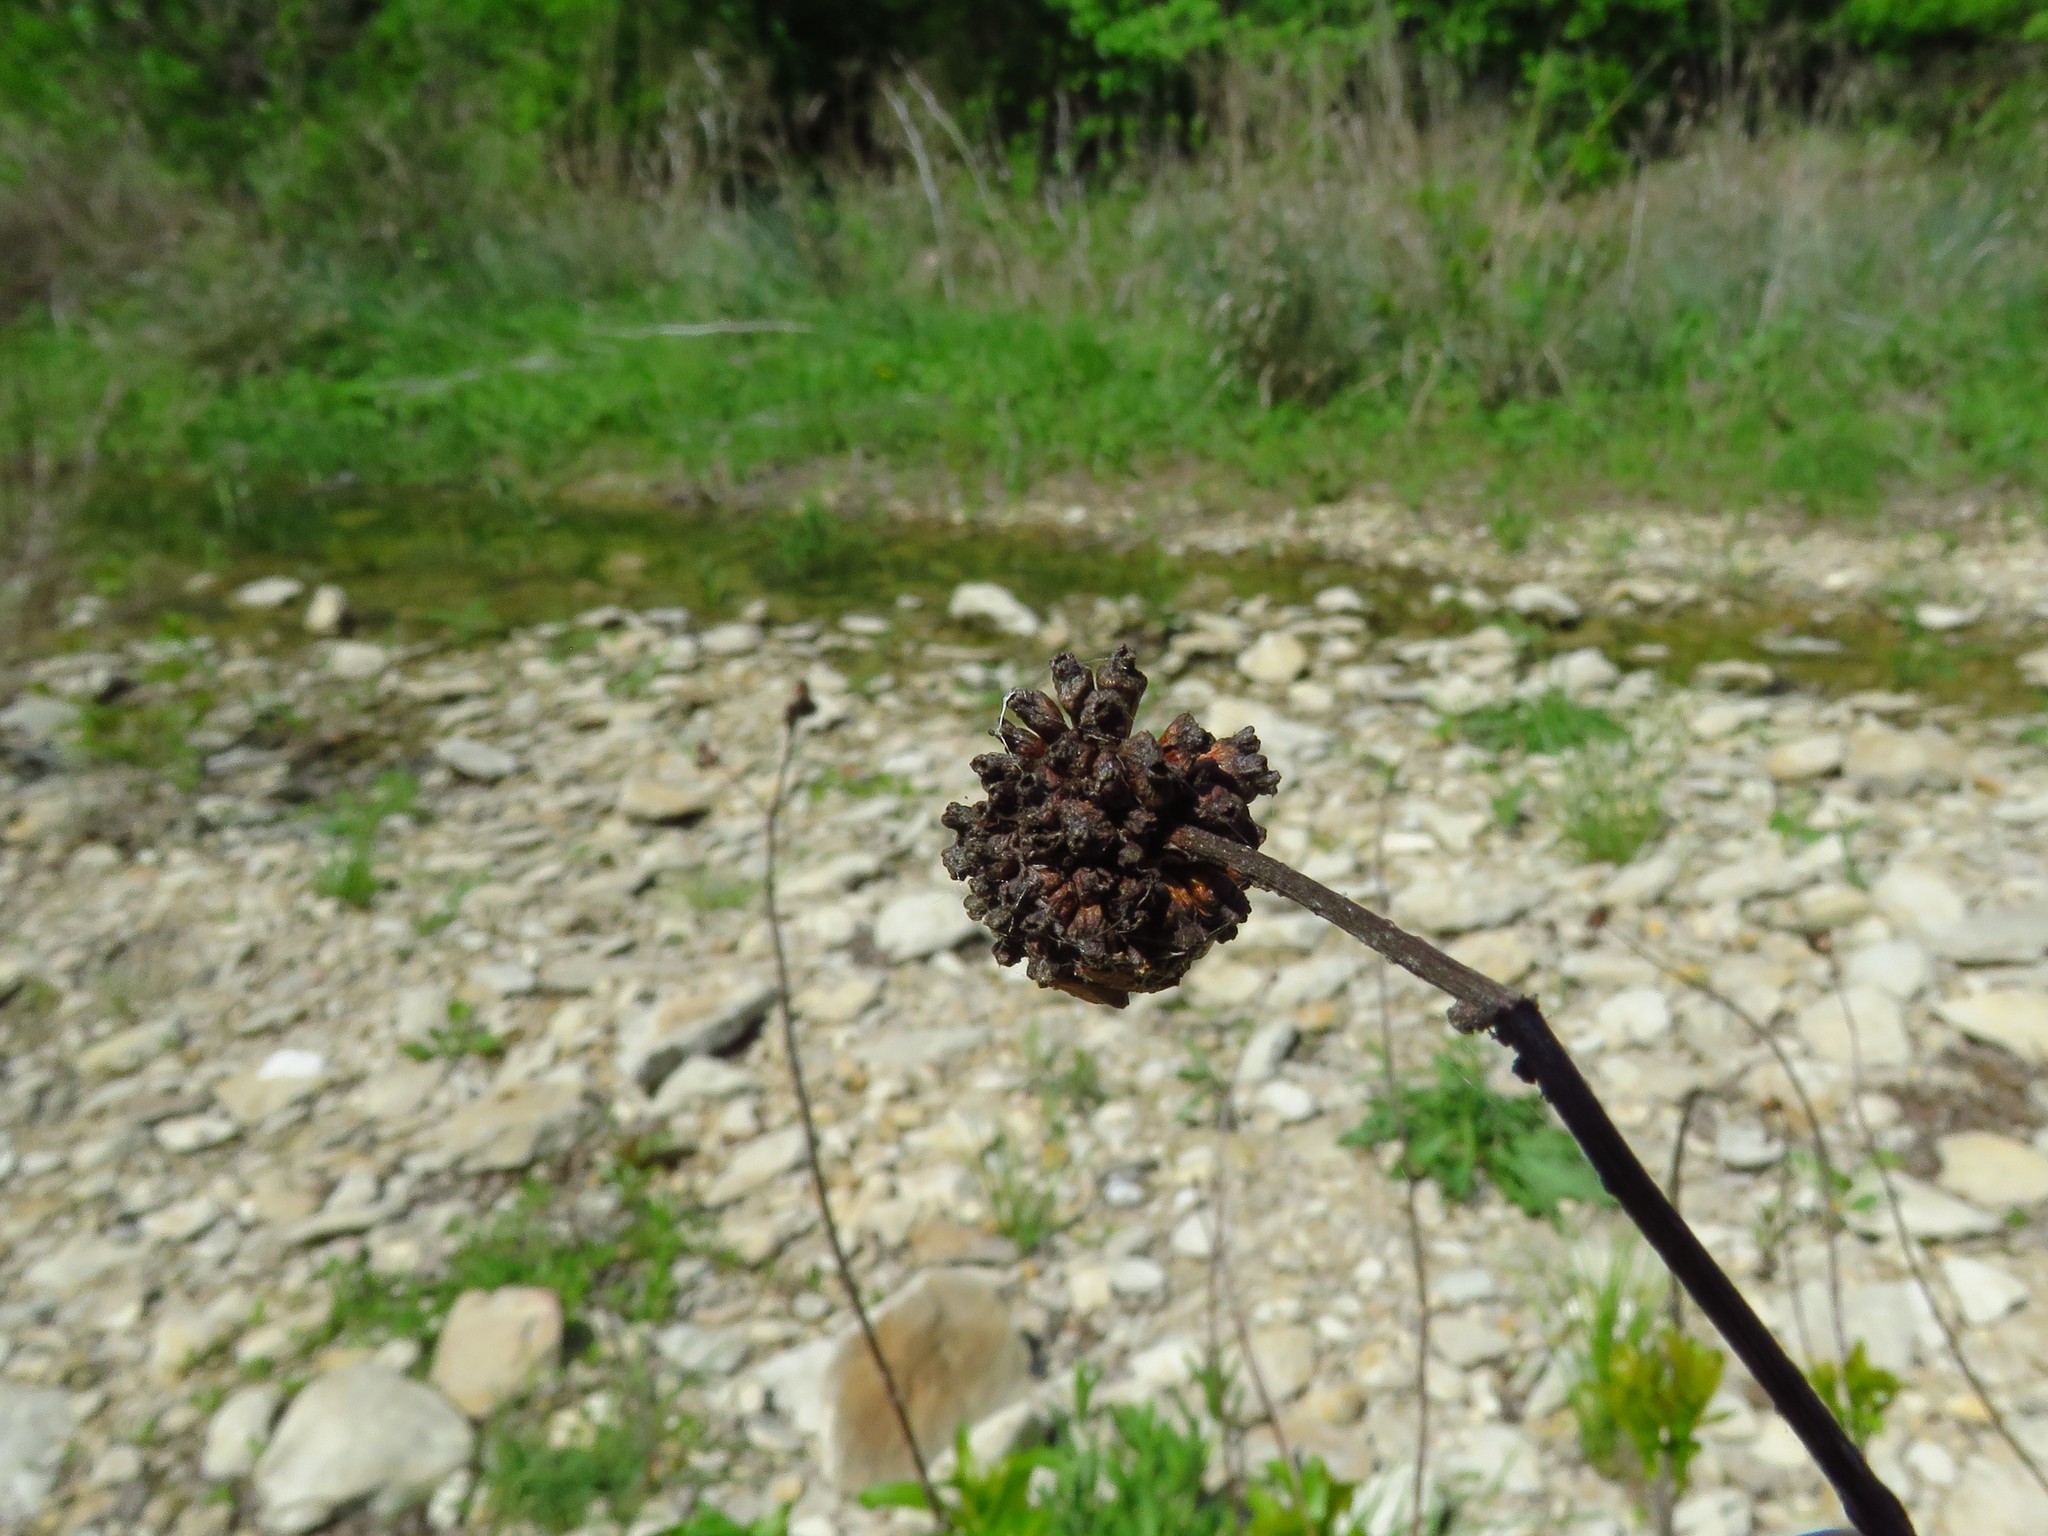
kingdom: Plantae
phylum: Tracheophyta
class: Magnoliopsida
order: Gentianales
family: Rubiaceae
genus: Cephalanthus
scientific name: Cephalanthus occidentalis
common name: Button-willow
